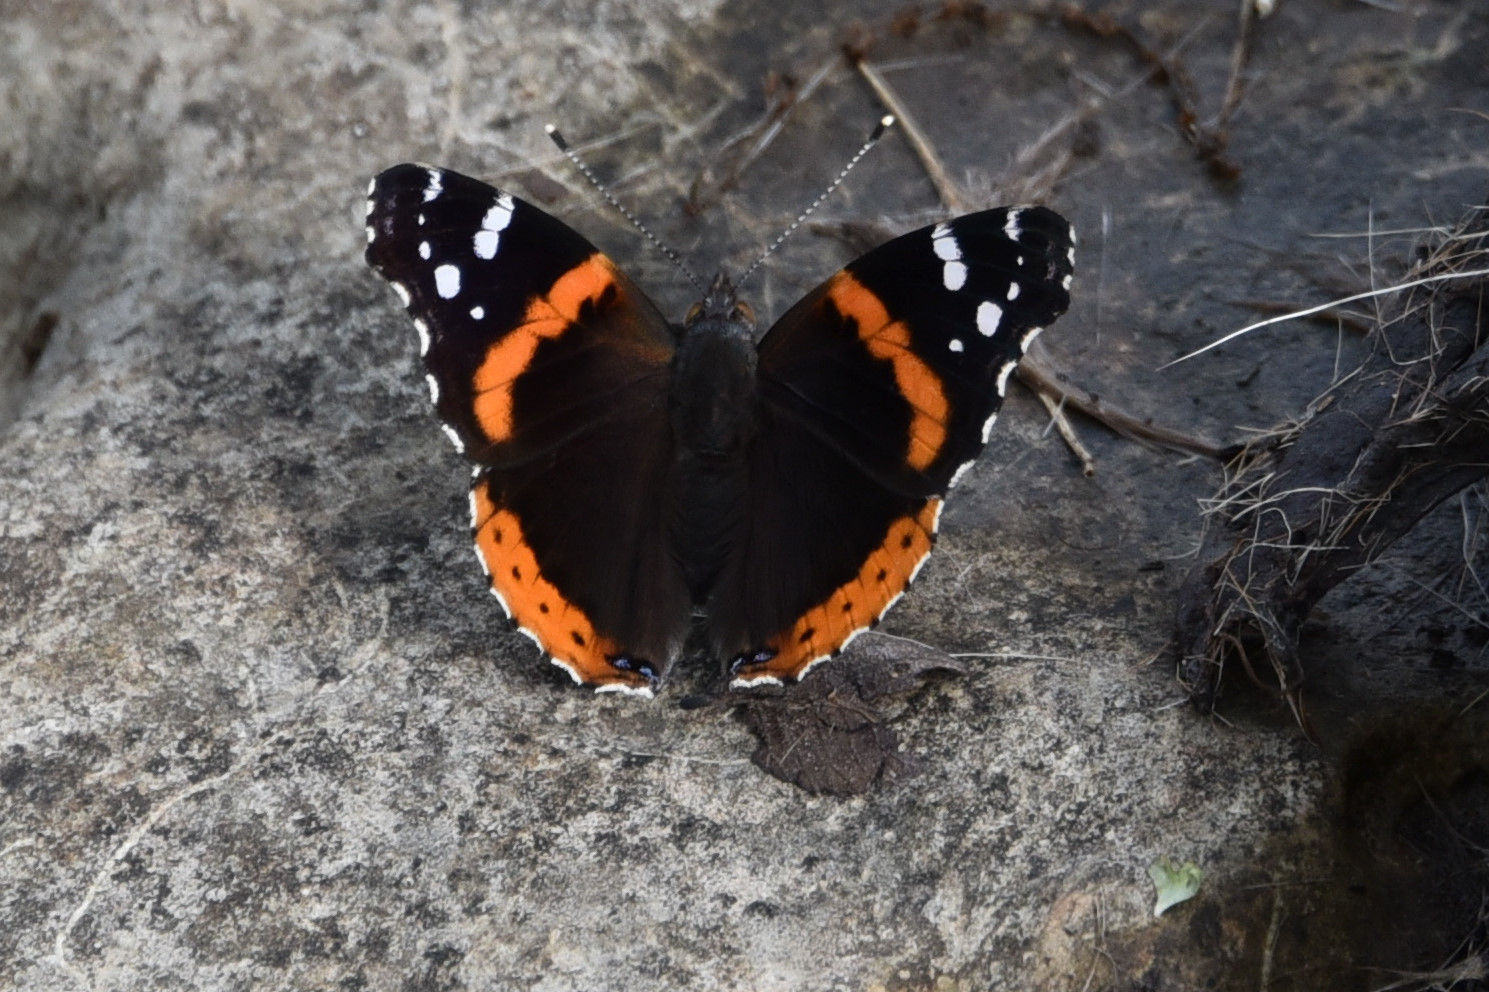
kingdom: Animalia
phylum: Arthropoda
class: Insecta
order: Lepidoptera
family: Nymphalidae
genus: Vanessa
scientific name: Vanessa atalanta
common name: Red admiral
